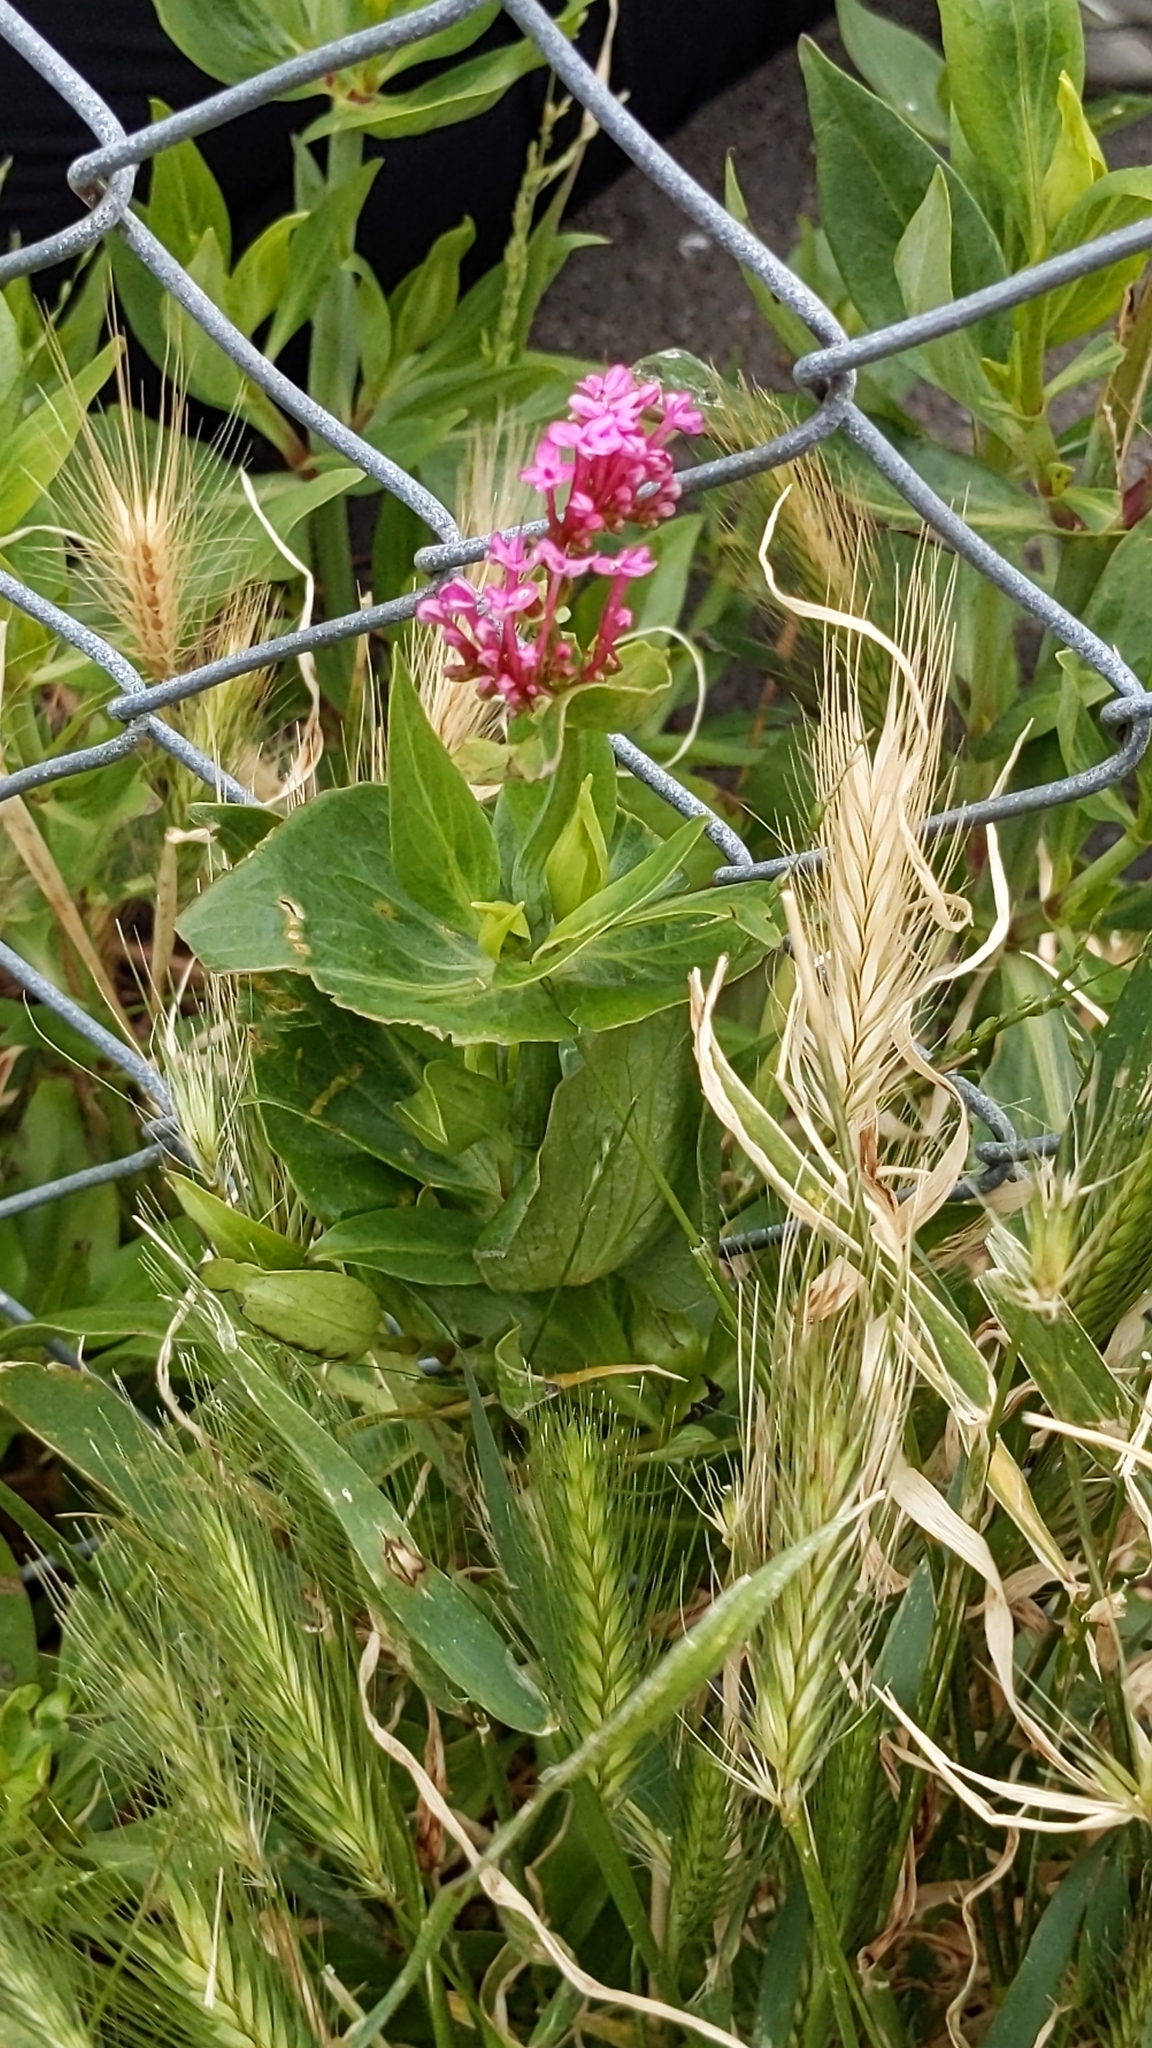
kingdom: Plantae
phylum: Tracheophyta
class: Magnoliopsida
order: Dipsacales
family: Caprifoliaceae
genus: Centranthus
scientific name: Centranthus ruber
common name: Red valerian
